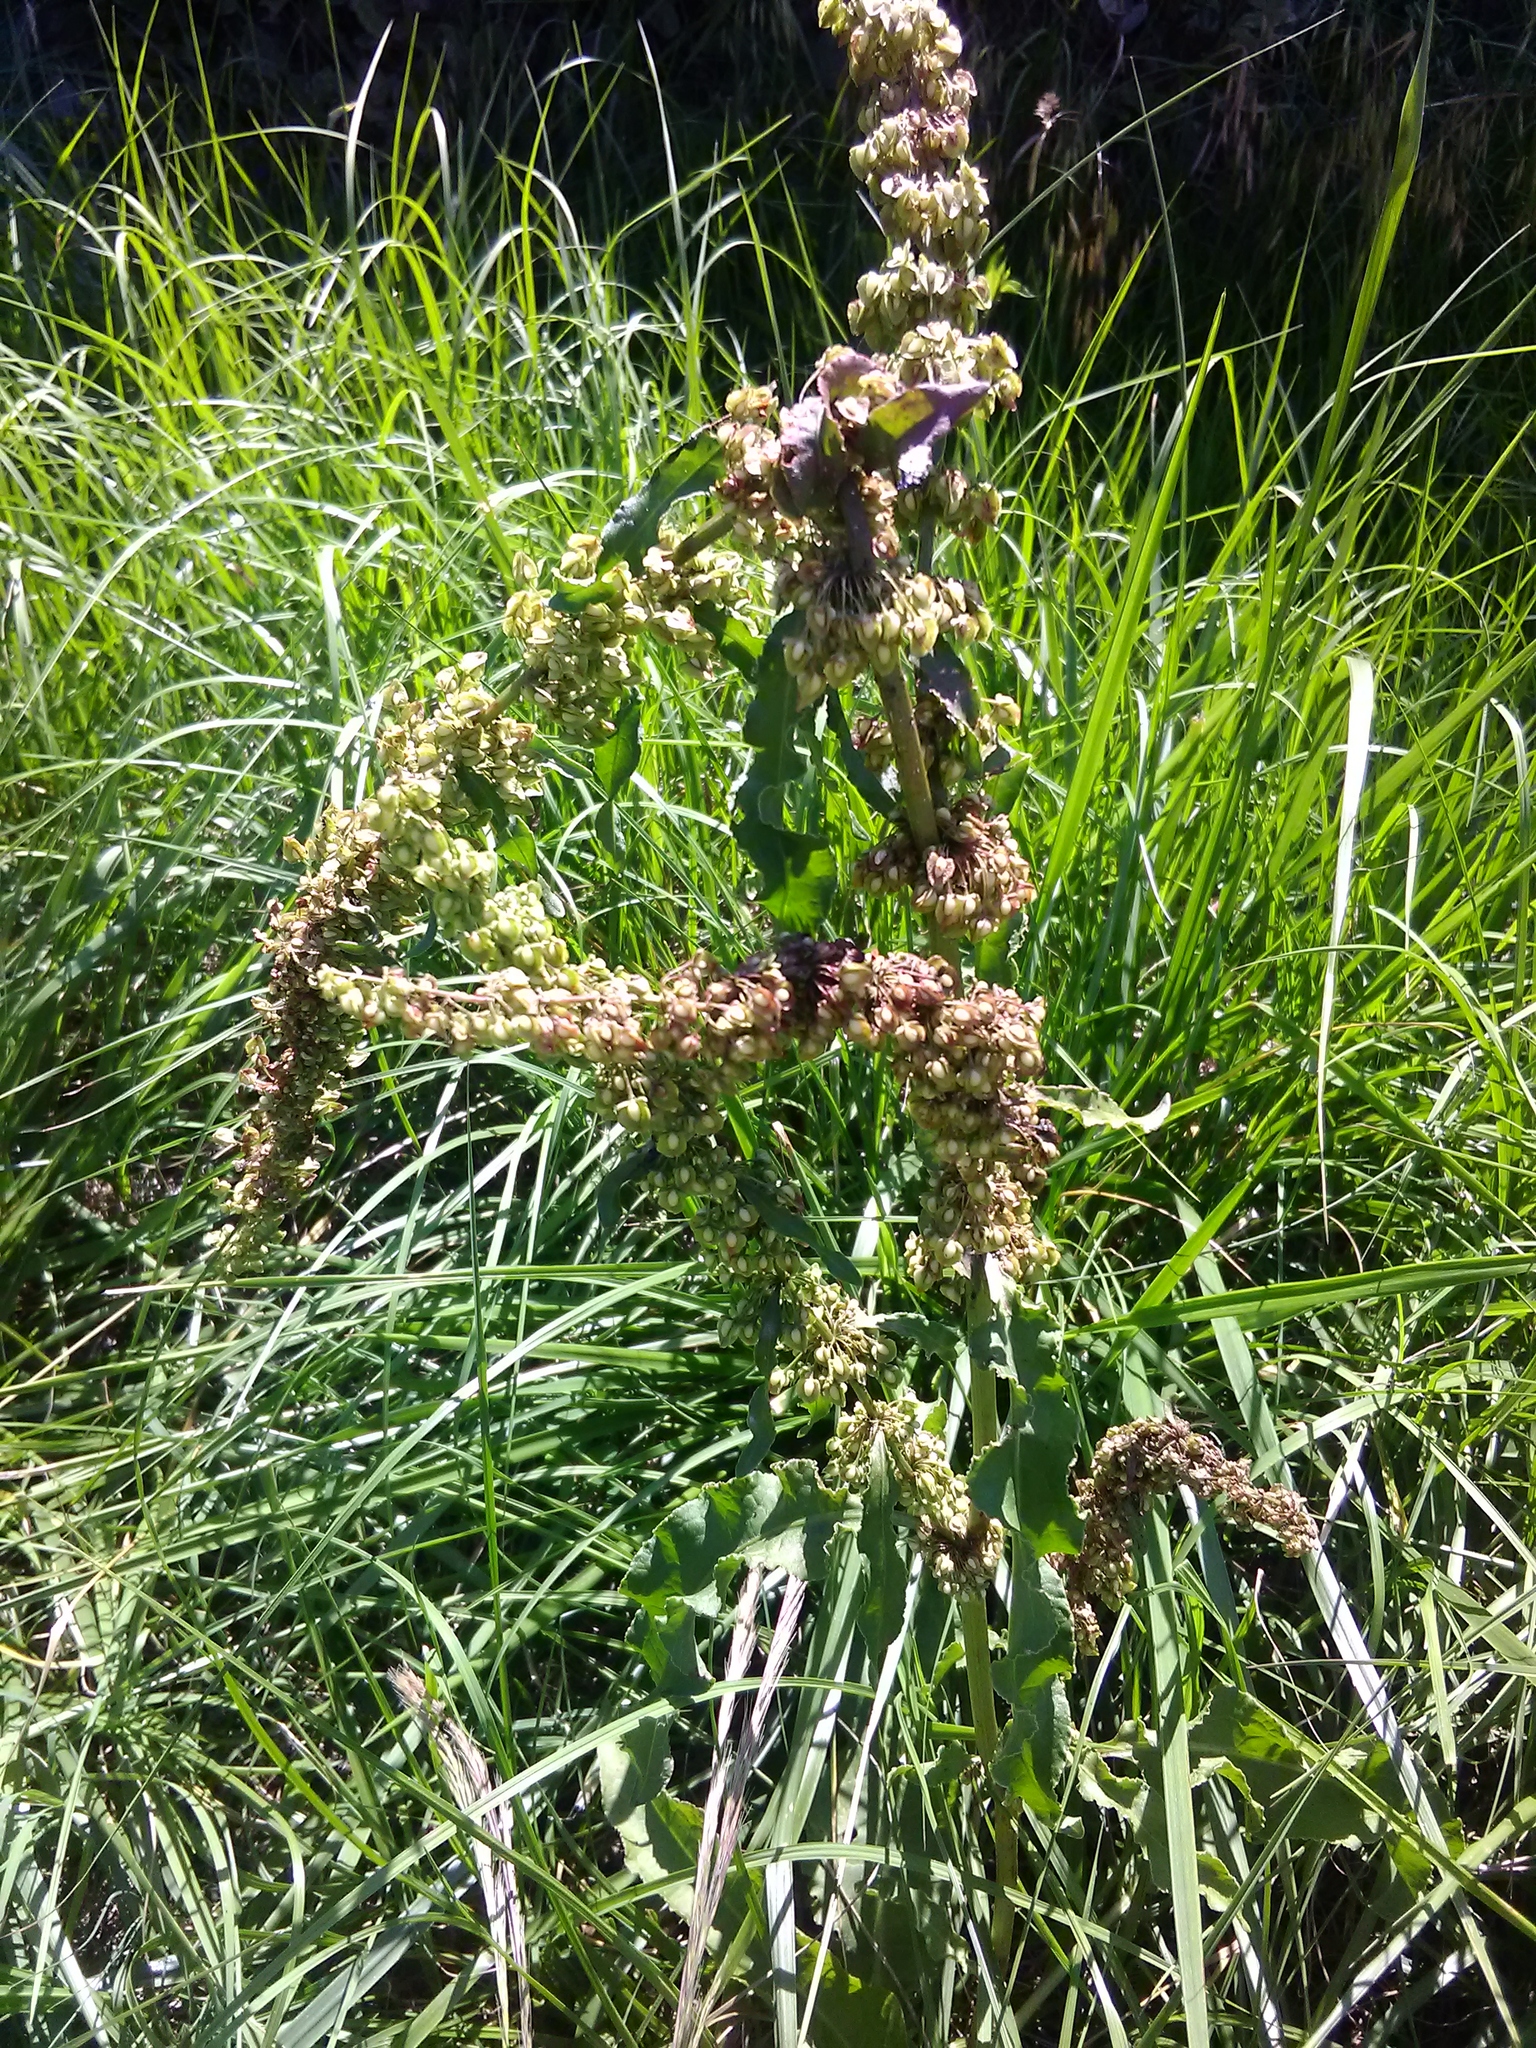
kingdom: Plantae
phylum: Tracheophyta
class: Magnoliopsida
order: Caryophyllales
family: Polygonaceae
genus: Rumex
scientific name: Rumex crispus
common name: Curled dock
